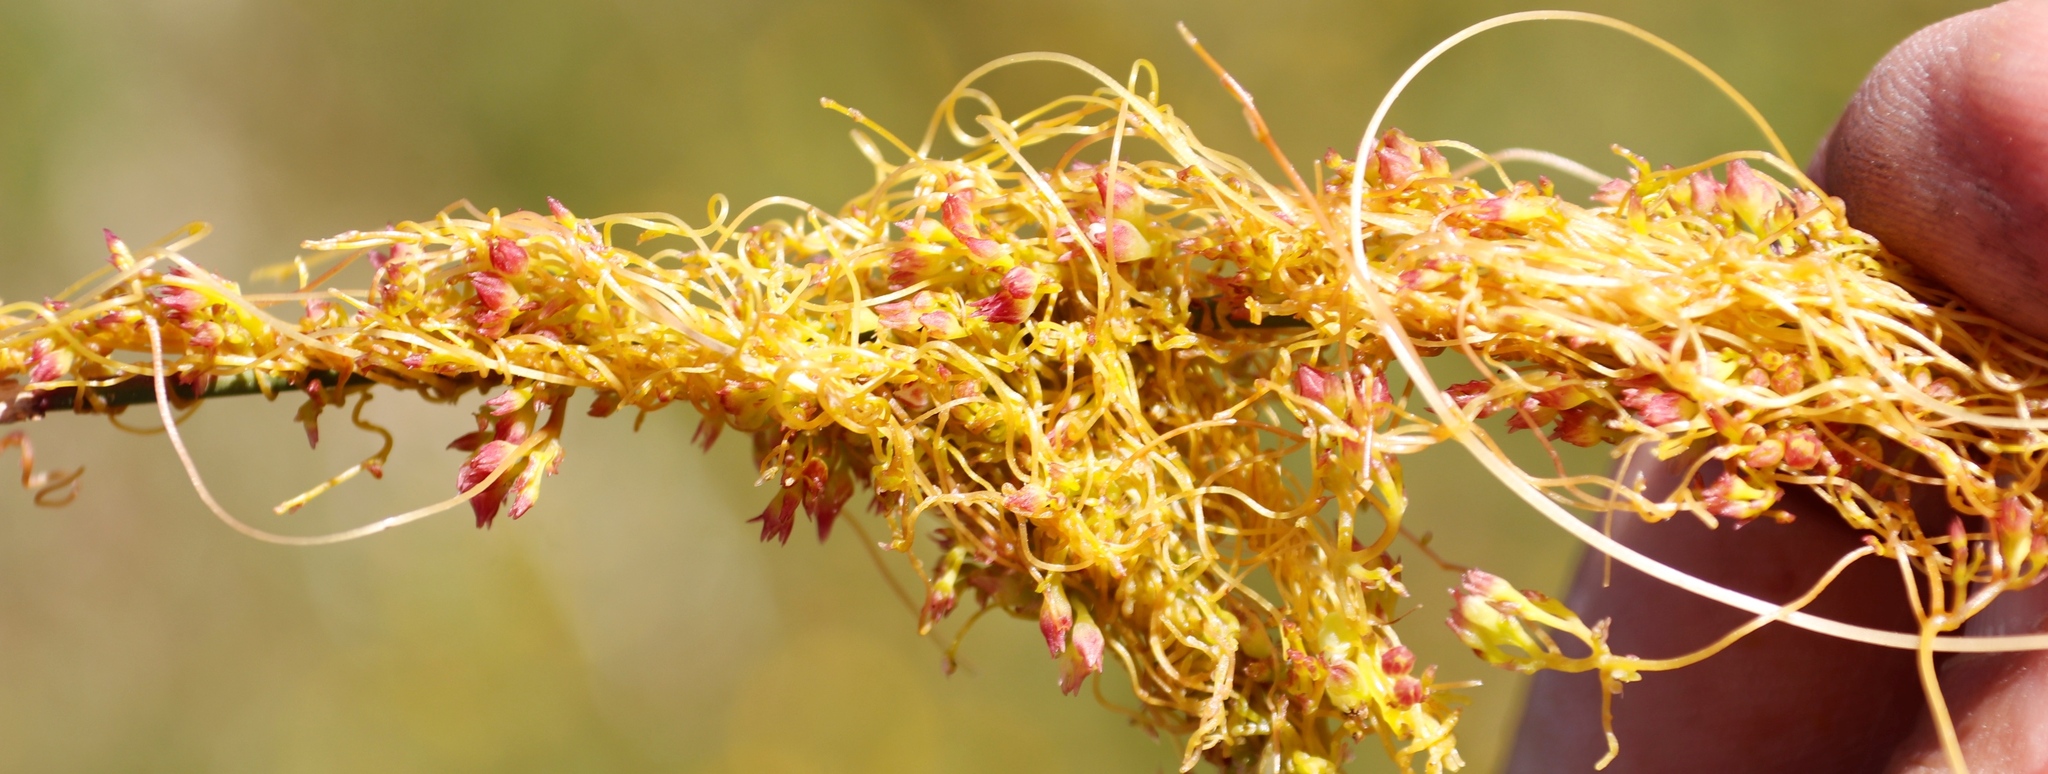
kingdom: Plantae
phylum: Tracheophyta
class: Magnoliopsida
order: Solanales
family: Convolvulaceae
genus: Cuscuta
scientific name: Cuscuta nitida
